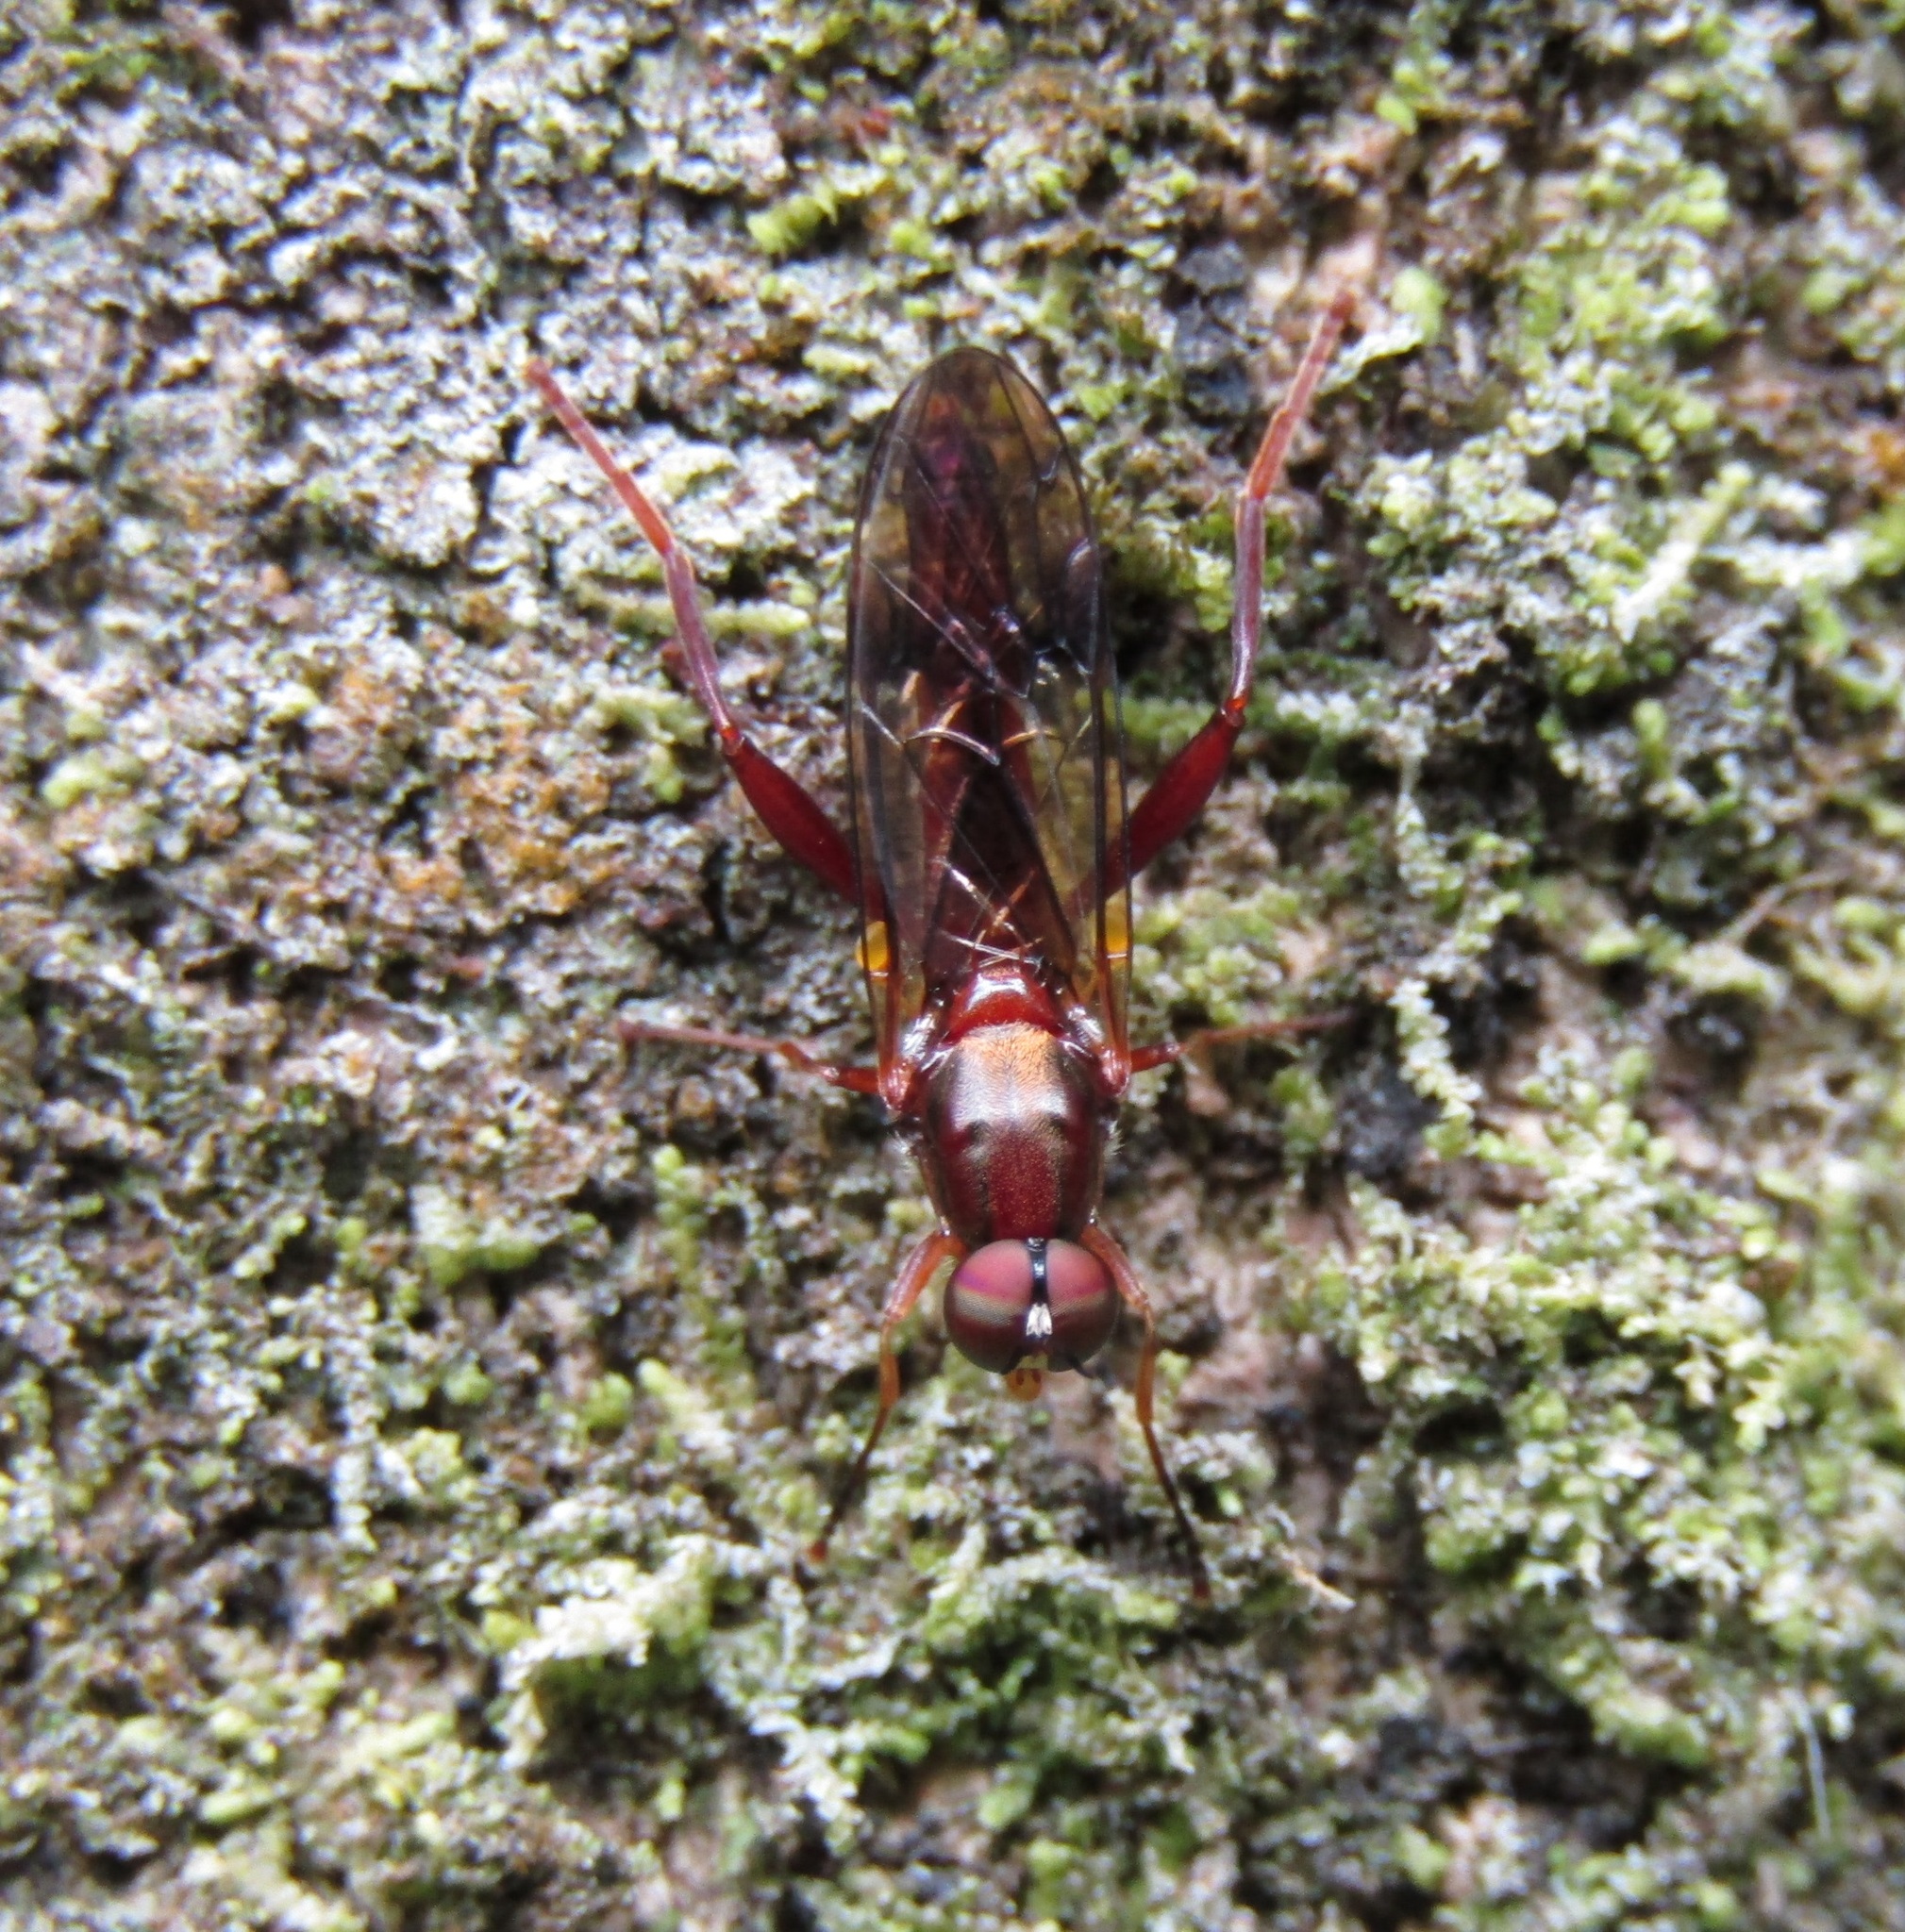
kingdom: Animalia
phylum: Arthropoda
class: Insecta
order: Diptera
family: Stratiomyidae
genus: Benhamyia
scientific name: Benhamyia straznitzkii
